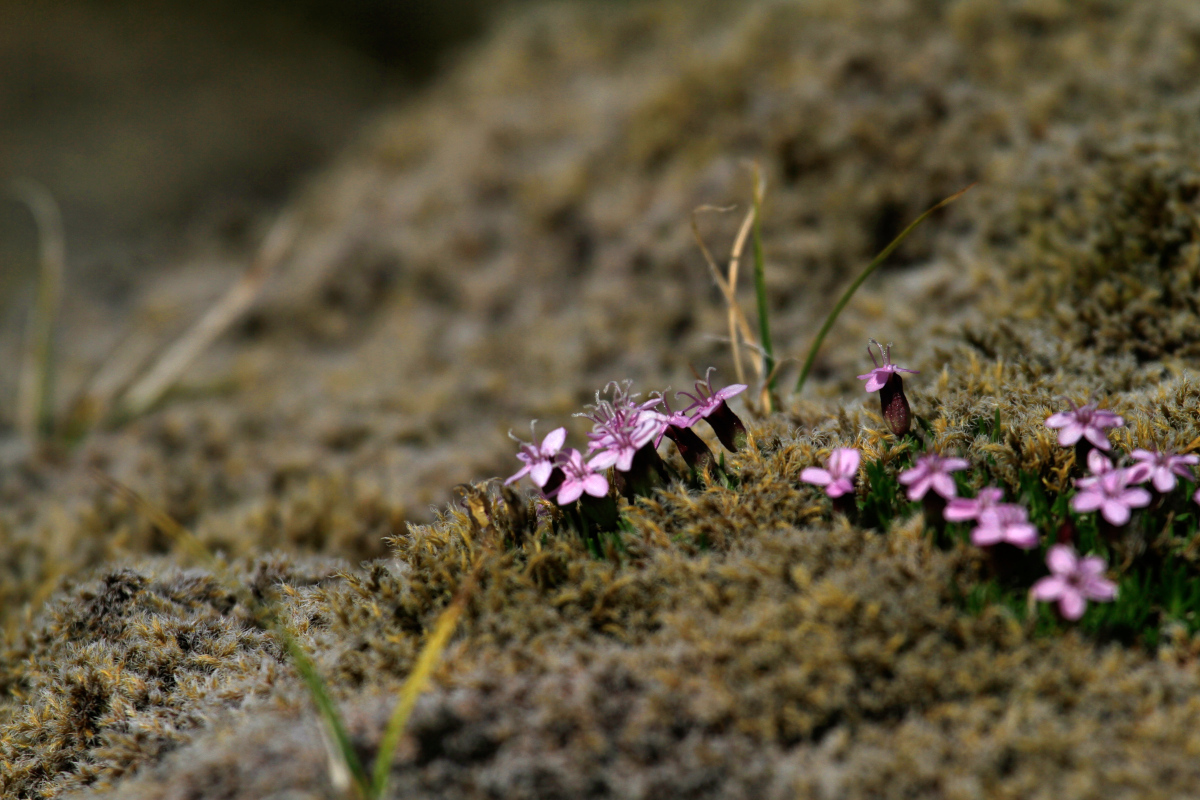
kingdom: Plantae
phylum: Tracheophyta
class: Magnoliopsida
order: Caryophyllales
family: Caryophyllaceae
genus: Silene
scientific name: Silene acaulis
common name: Moss campion
